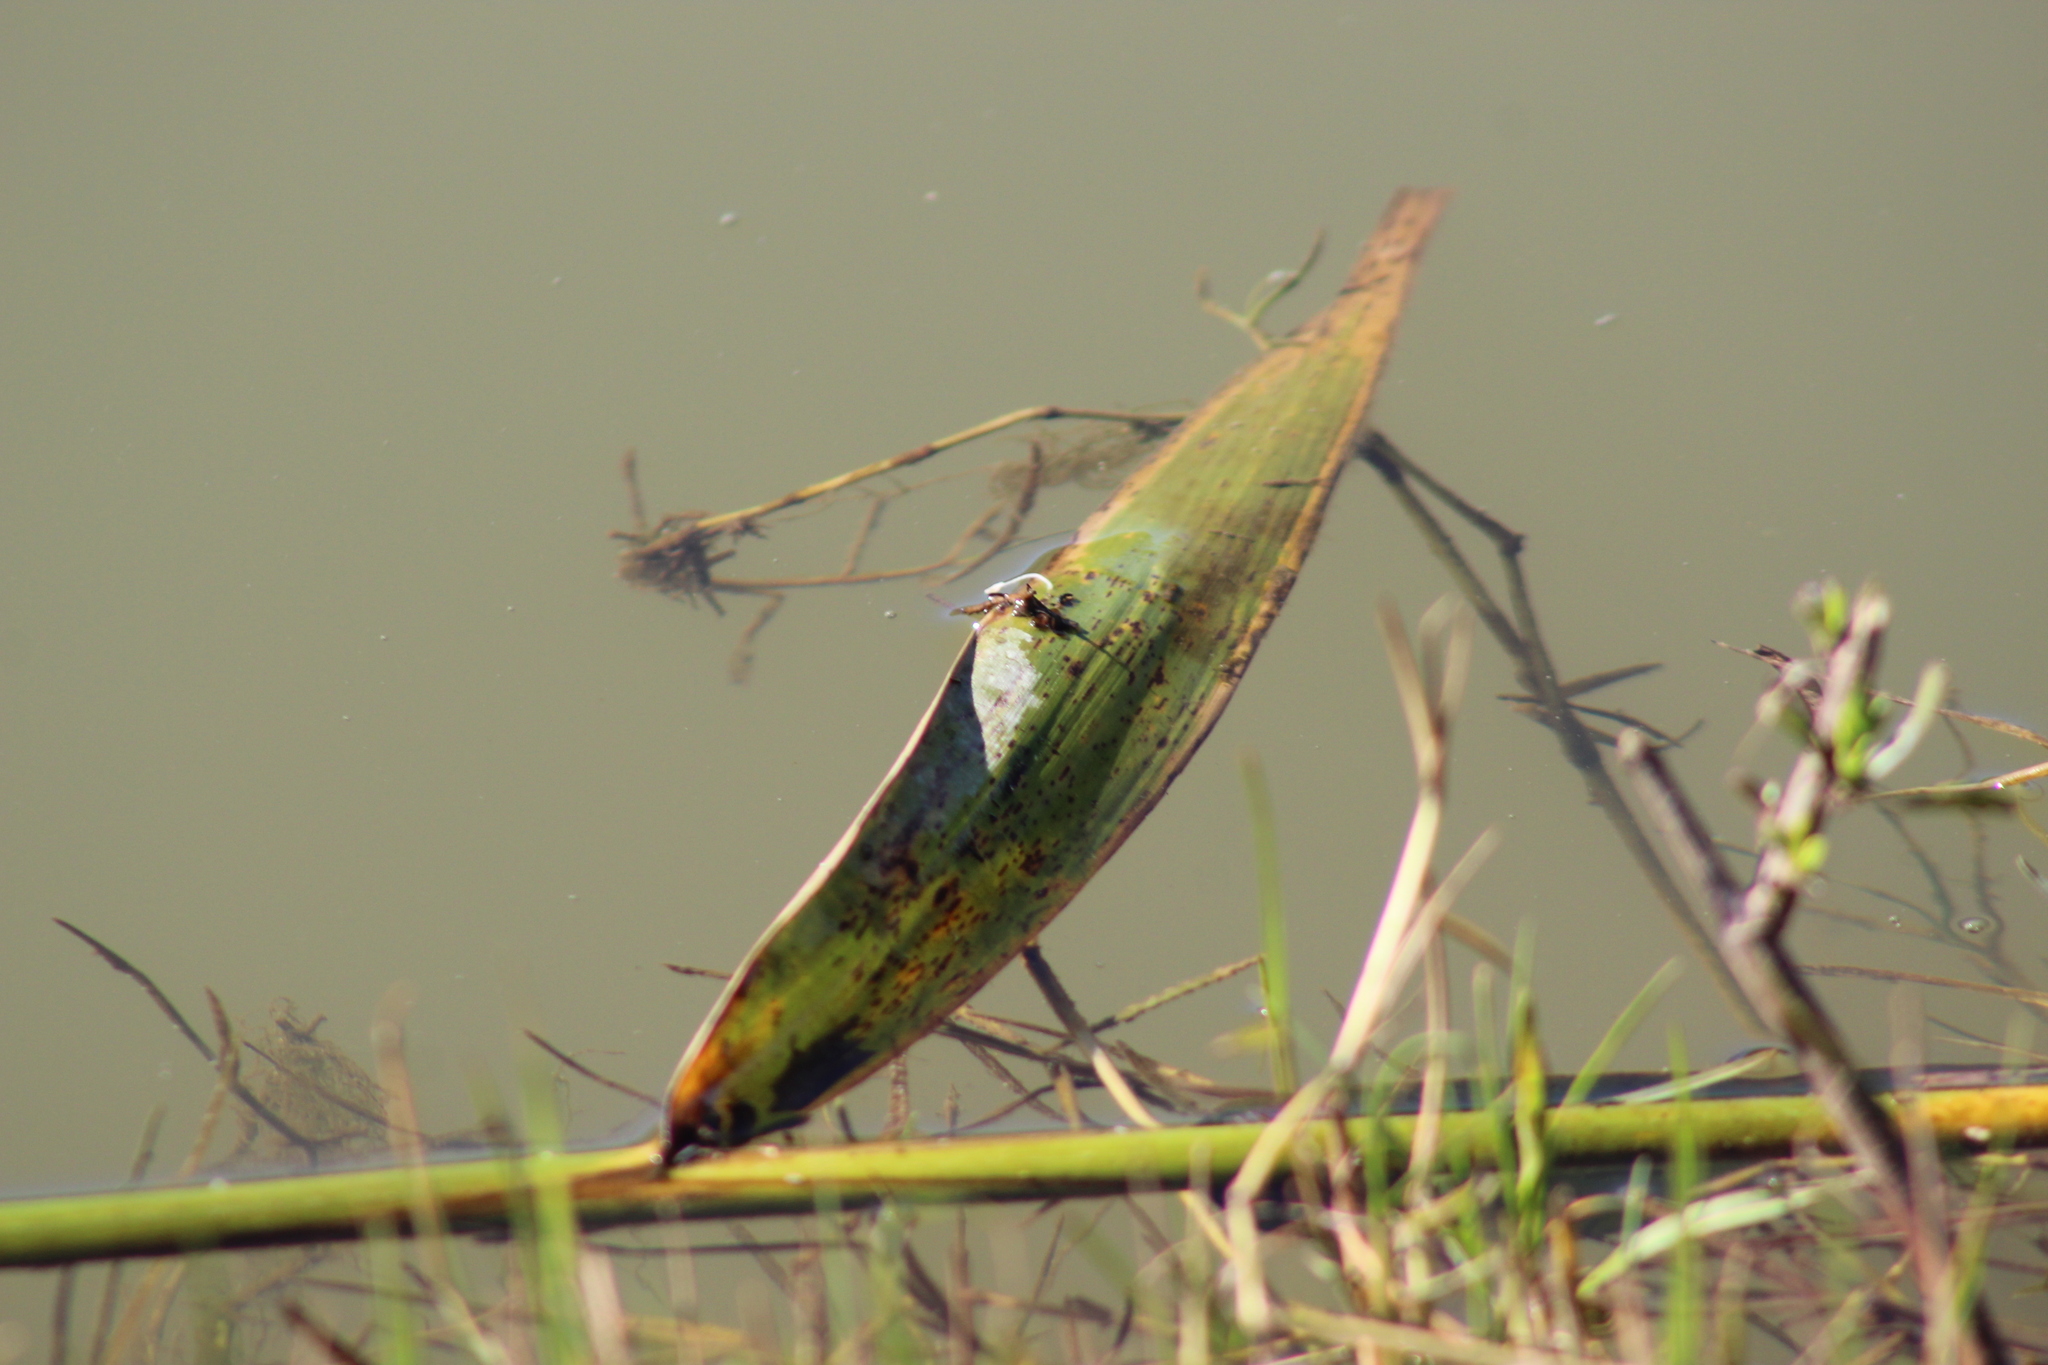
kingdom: Animalia
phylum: Arthropoda
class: Insecta
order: Odonata
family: Coenagrionidae
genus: Pseudagrion
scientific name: Pseudagrion massaicum
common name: Masai sprite
